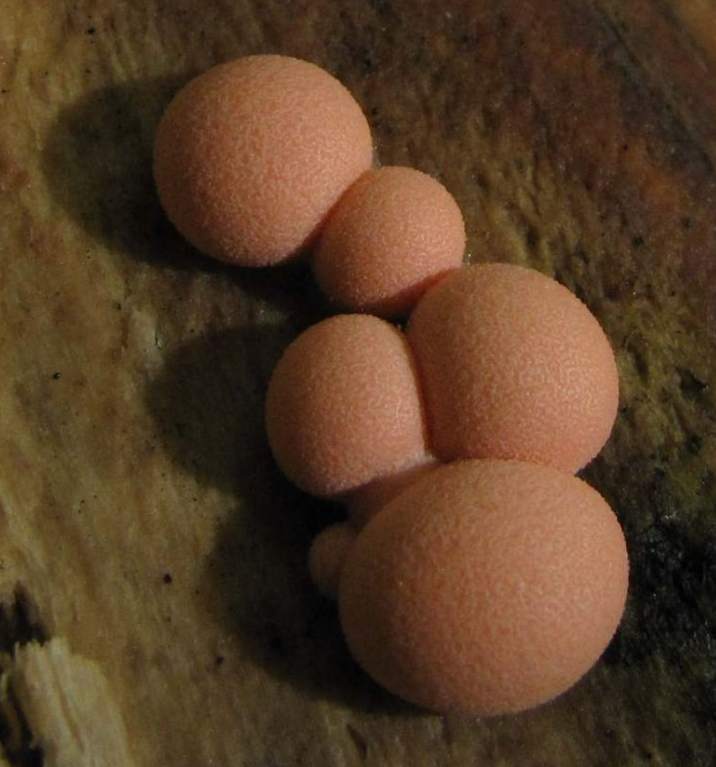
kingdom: Protozoa
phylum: Mycetozoa
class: Myxomycetes
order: Cribrariales
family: Tubiferaceae
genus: Lycogala
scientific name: Lycogala epidendrum
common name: Wolf's milk
